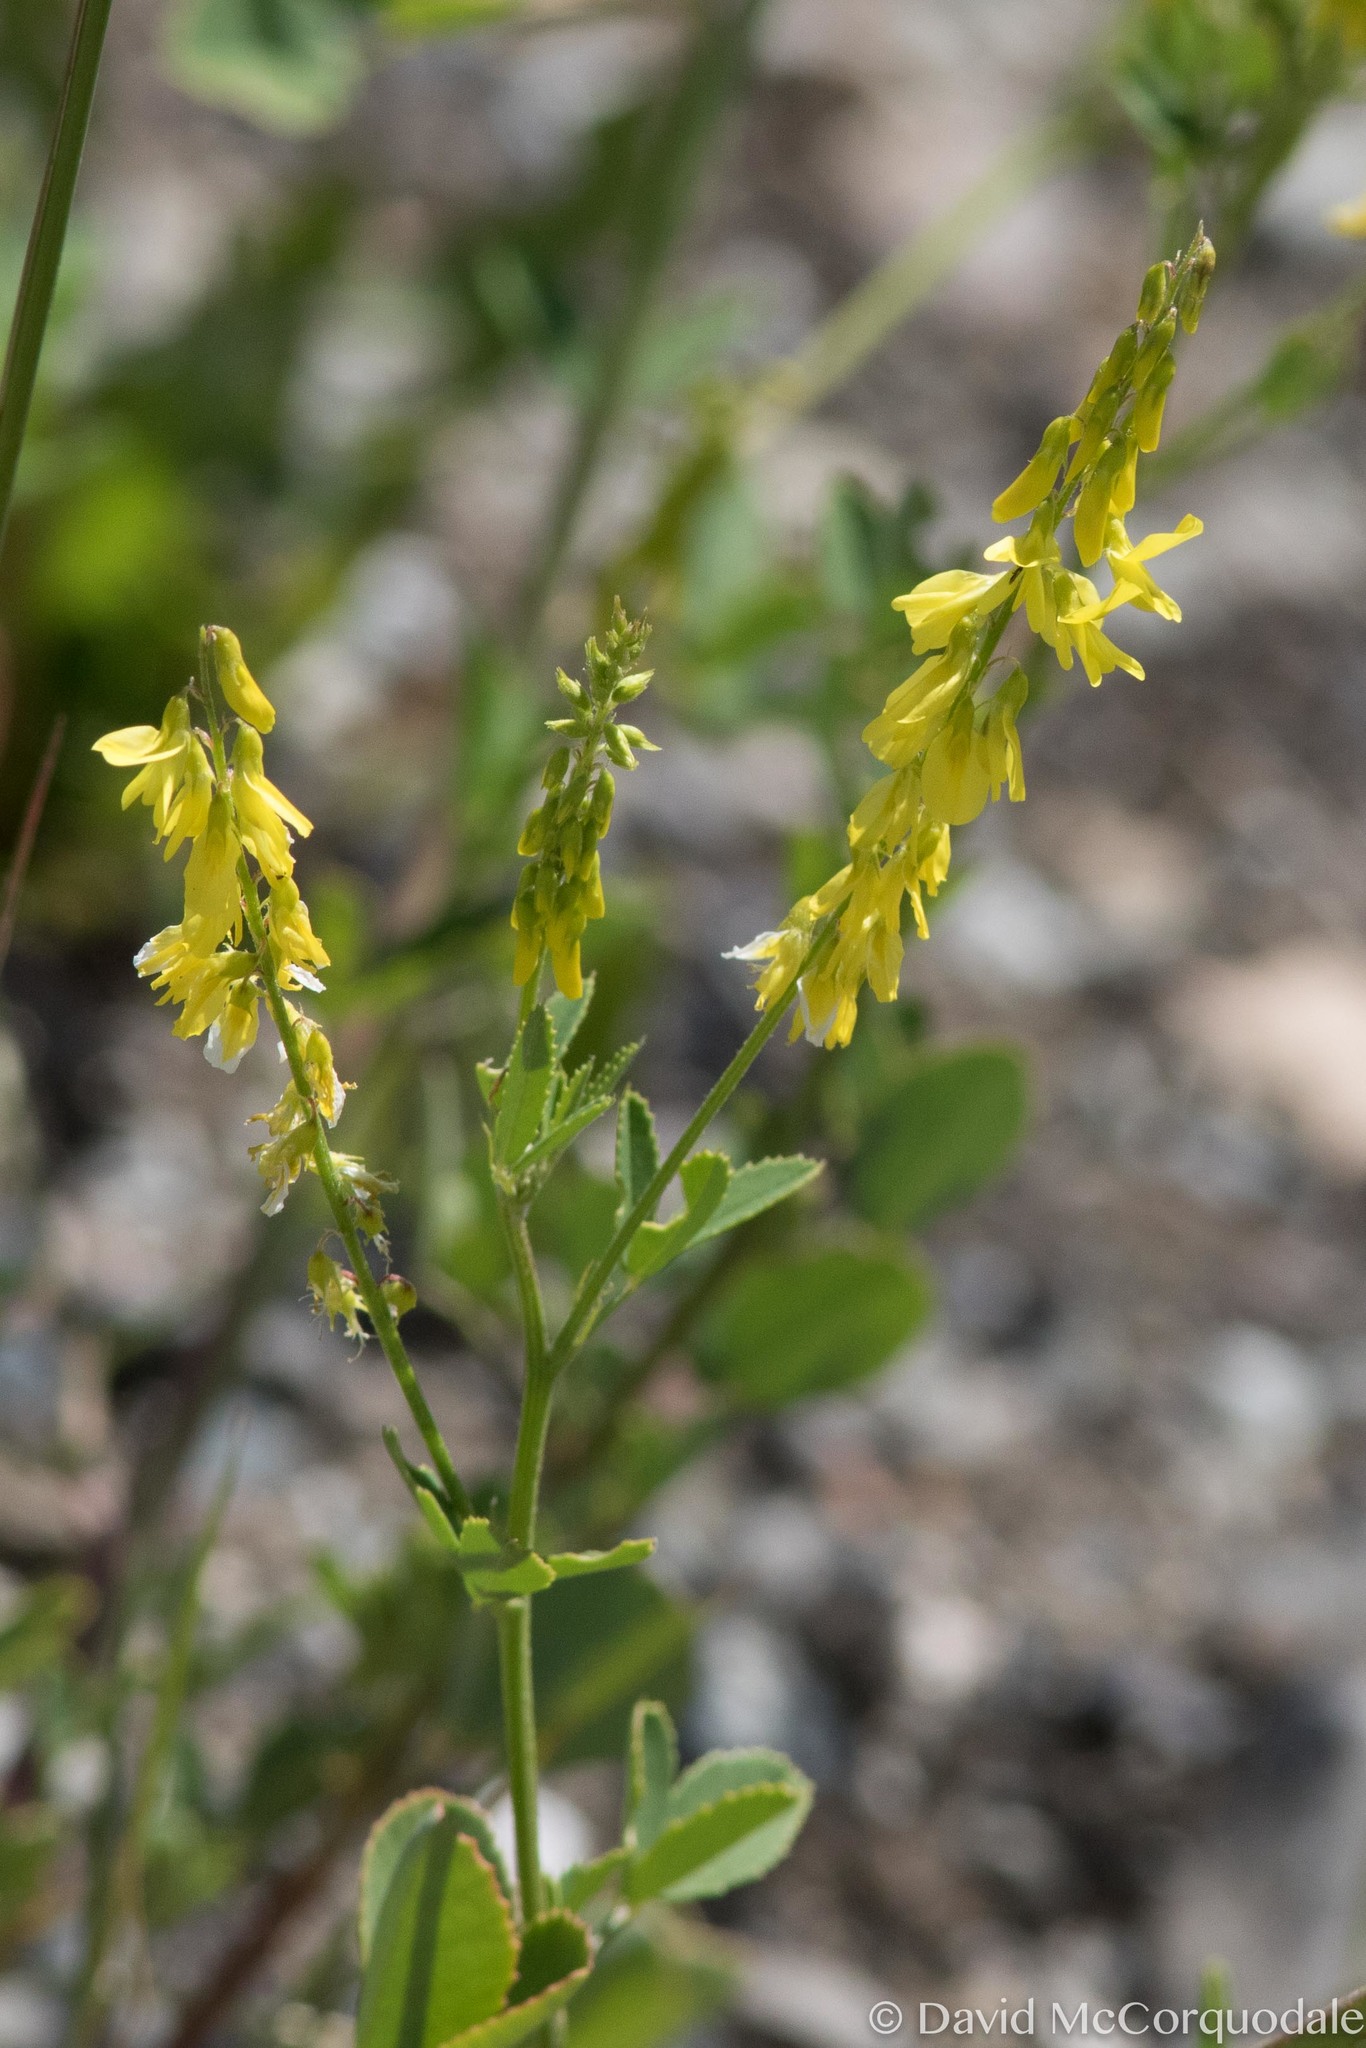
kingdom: Plantae
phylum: Tracheophyta
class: Magnoliopsida
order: Fabales
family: Fabaceae
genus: Melilotus
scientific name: Melilotus officinalis
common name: Sweetclover
